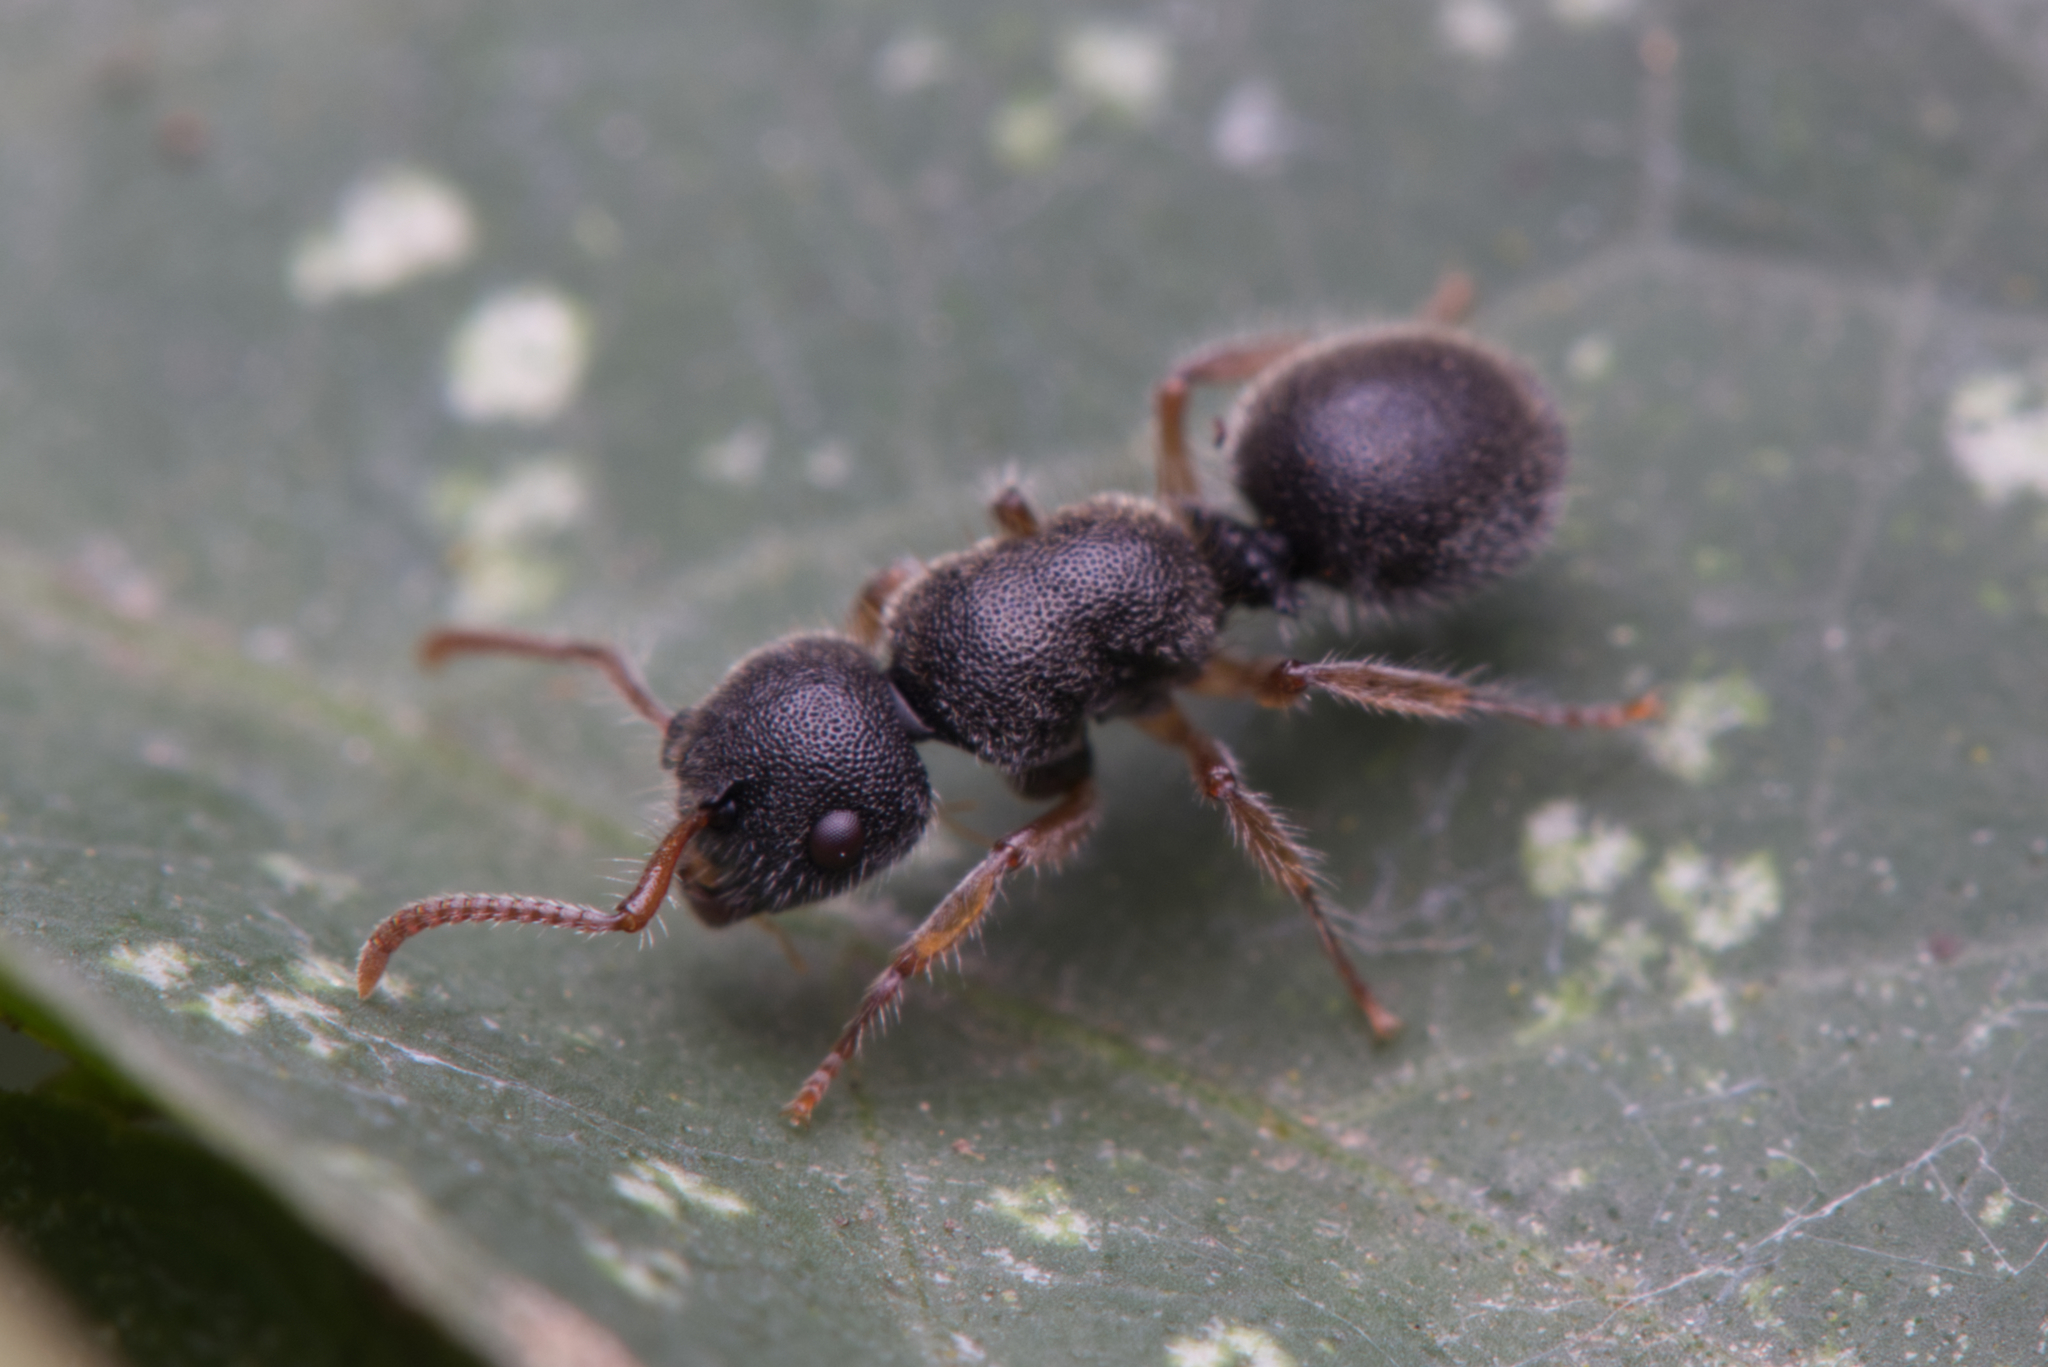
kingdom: Animalia
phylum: Arthropoda
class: Insecta
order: Hymenoptera
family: Formicidae
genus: Echinopla
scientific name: Echinopla turneri
